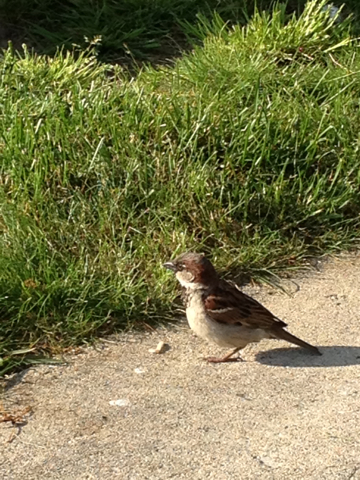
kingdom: Animalia
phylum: Chordata
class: Aves
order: Passeriformes
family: Passeridae
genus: Passer
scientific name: Passer domesticus
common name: House sparrow
